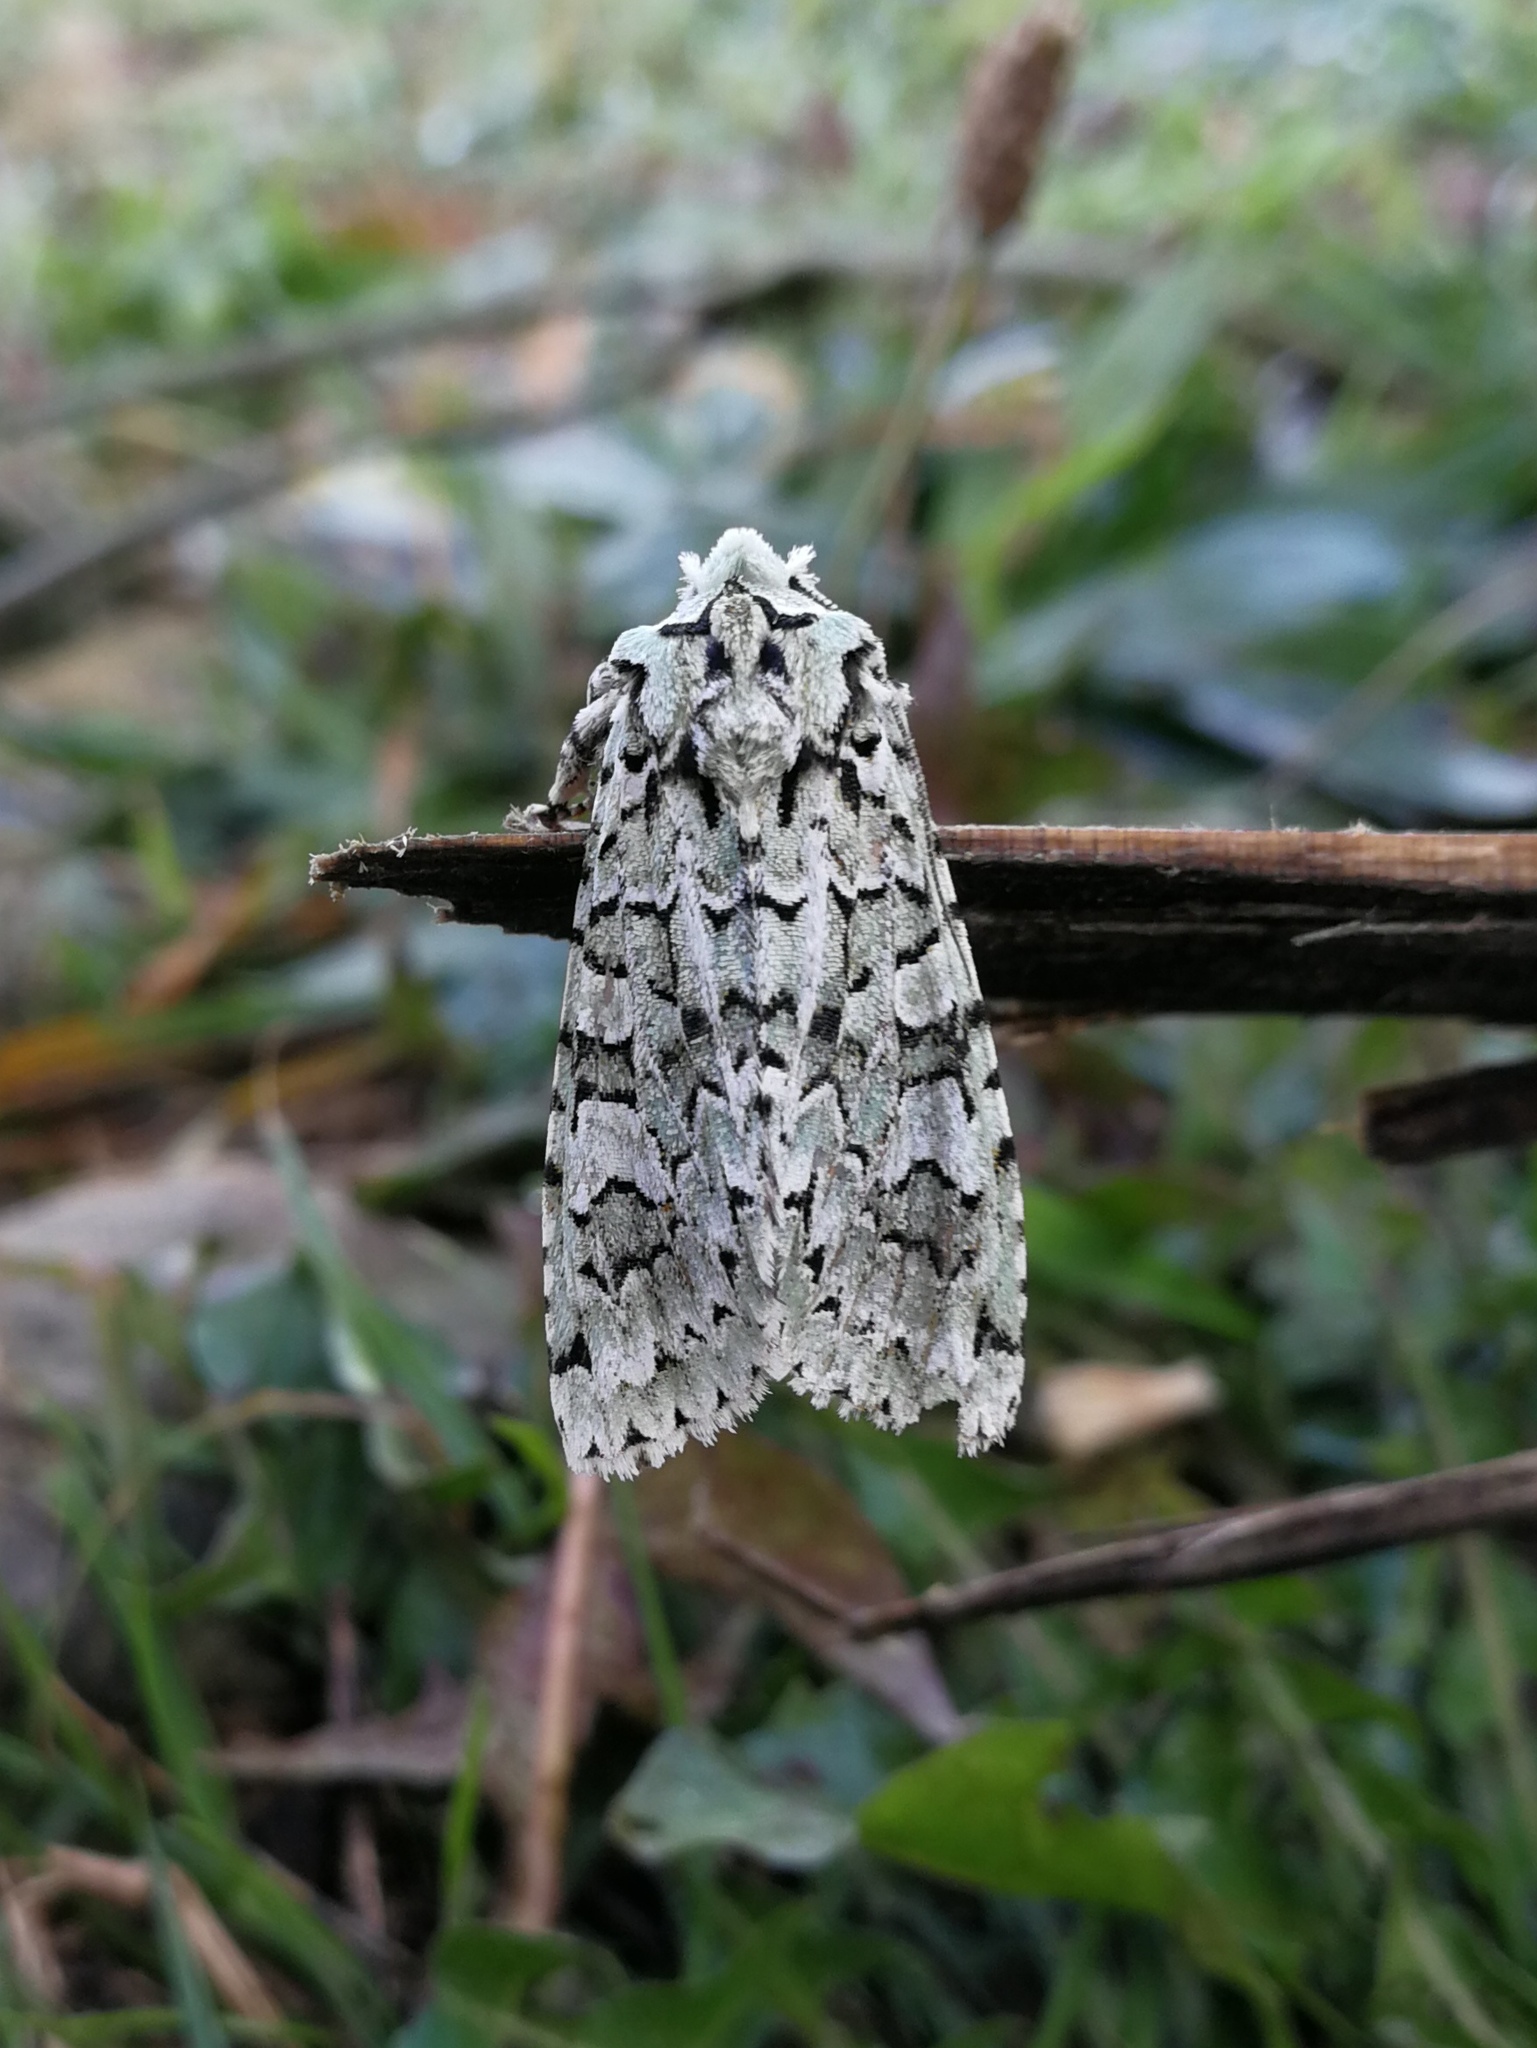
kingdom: Animalia
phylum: Arthropoda
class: Insecta
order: Lepidoptera
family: Noctuidae
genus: Griposia
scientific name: Griposia aprilina
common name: Merveille du jour
